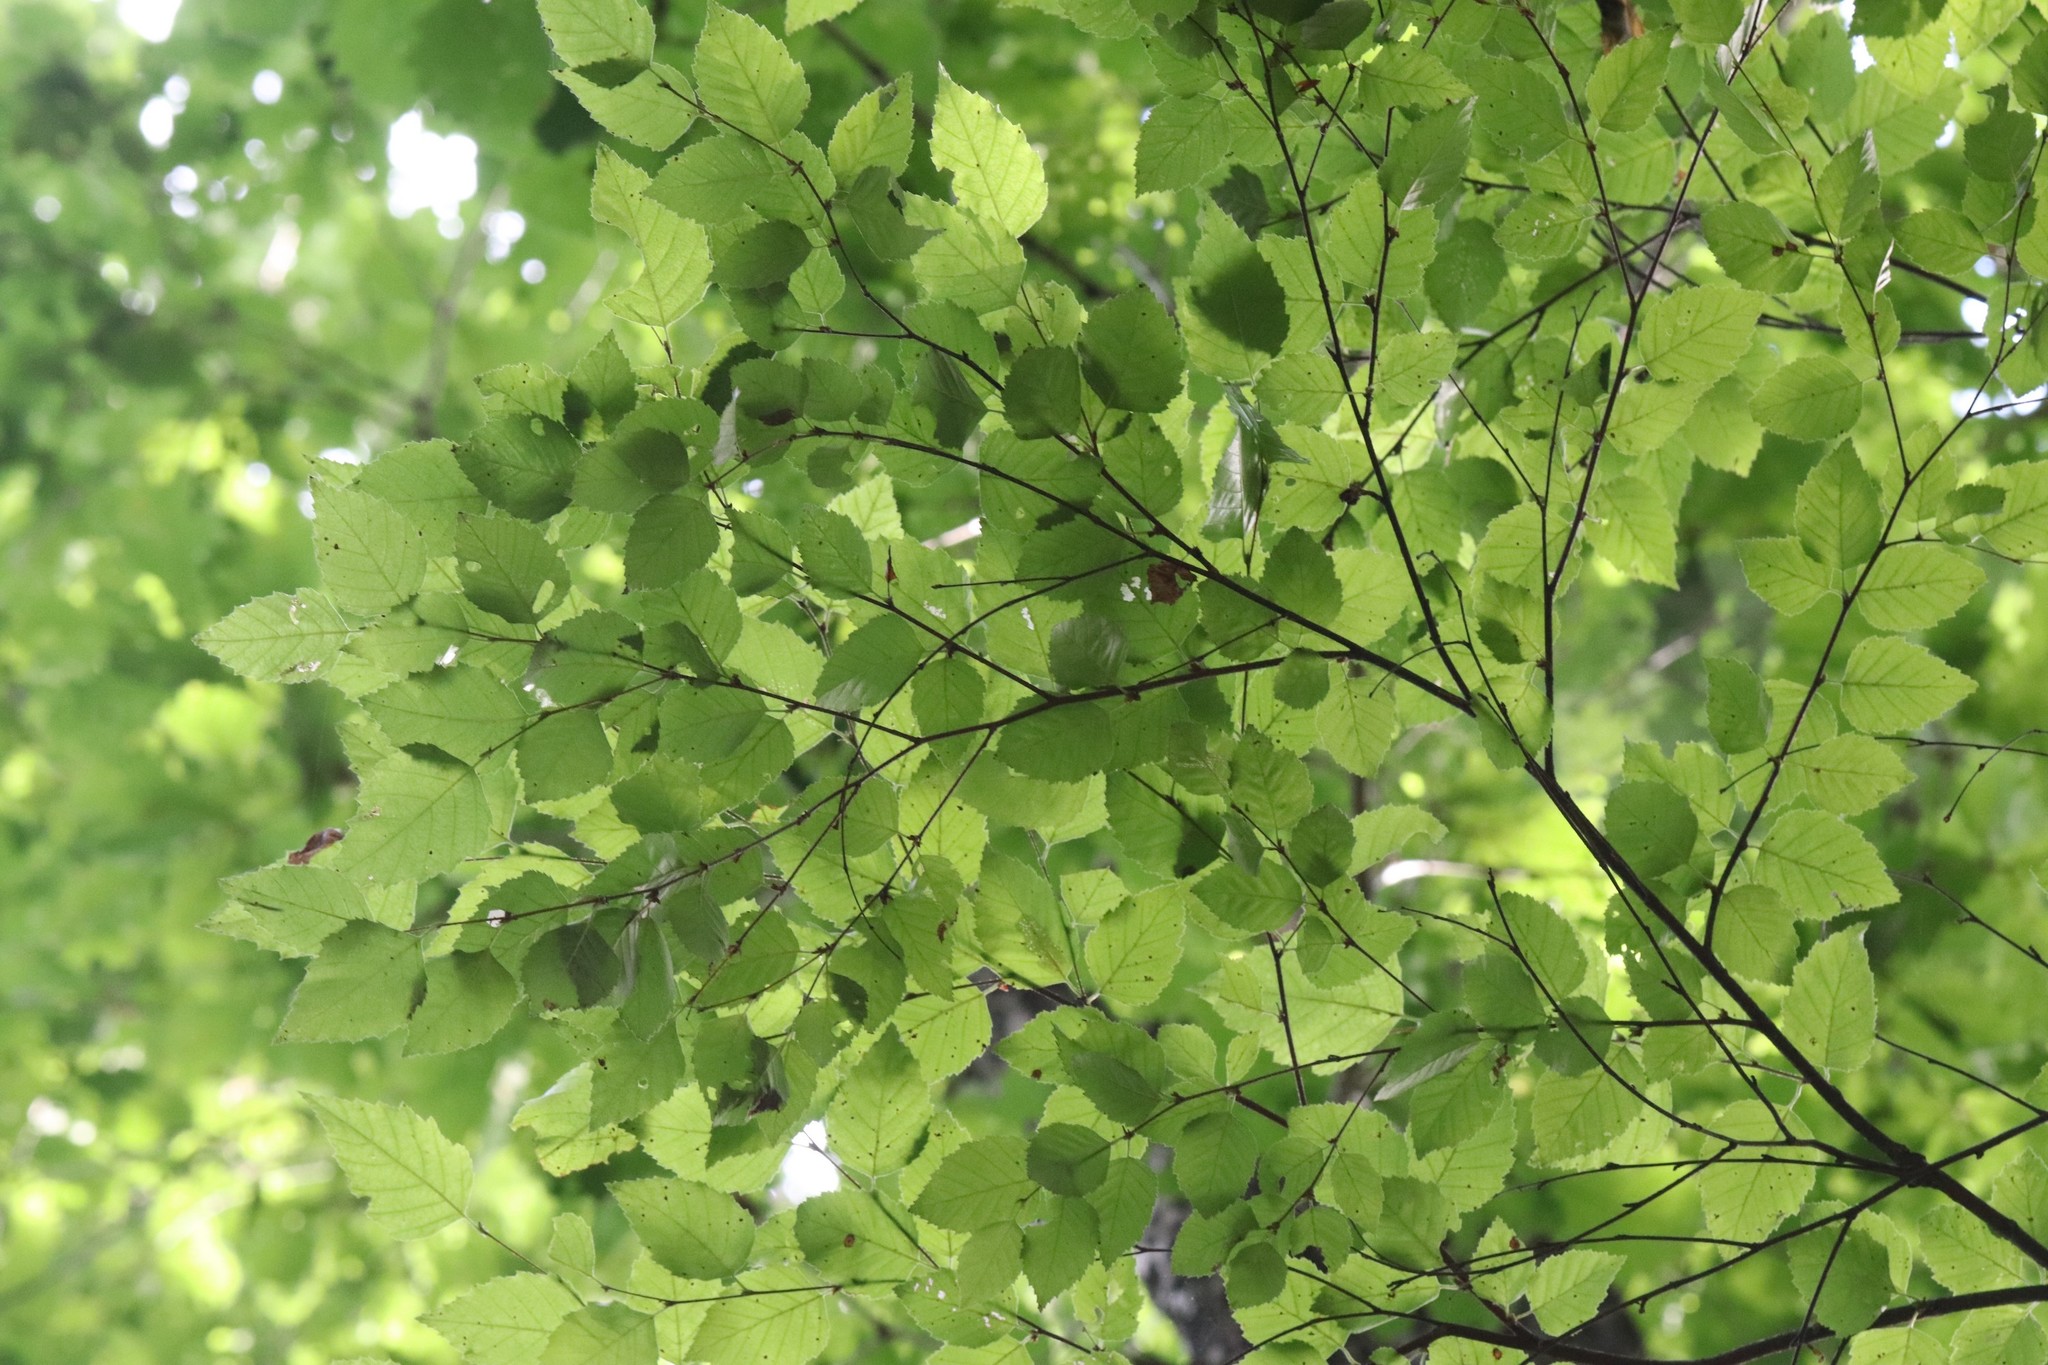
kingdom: Plantae
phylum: Tracheophyta
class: Magnoliopsida
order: Fagales
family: Betulaceae
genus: Betula
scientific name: Betula dauurica
